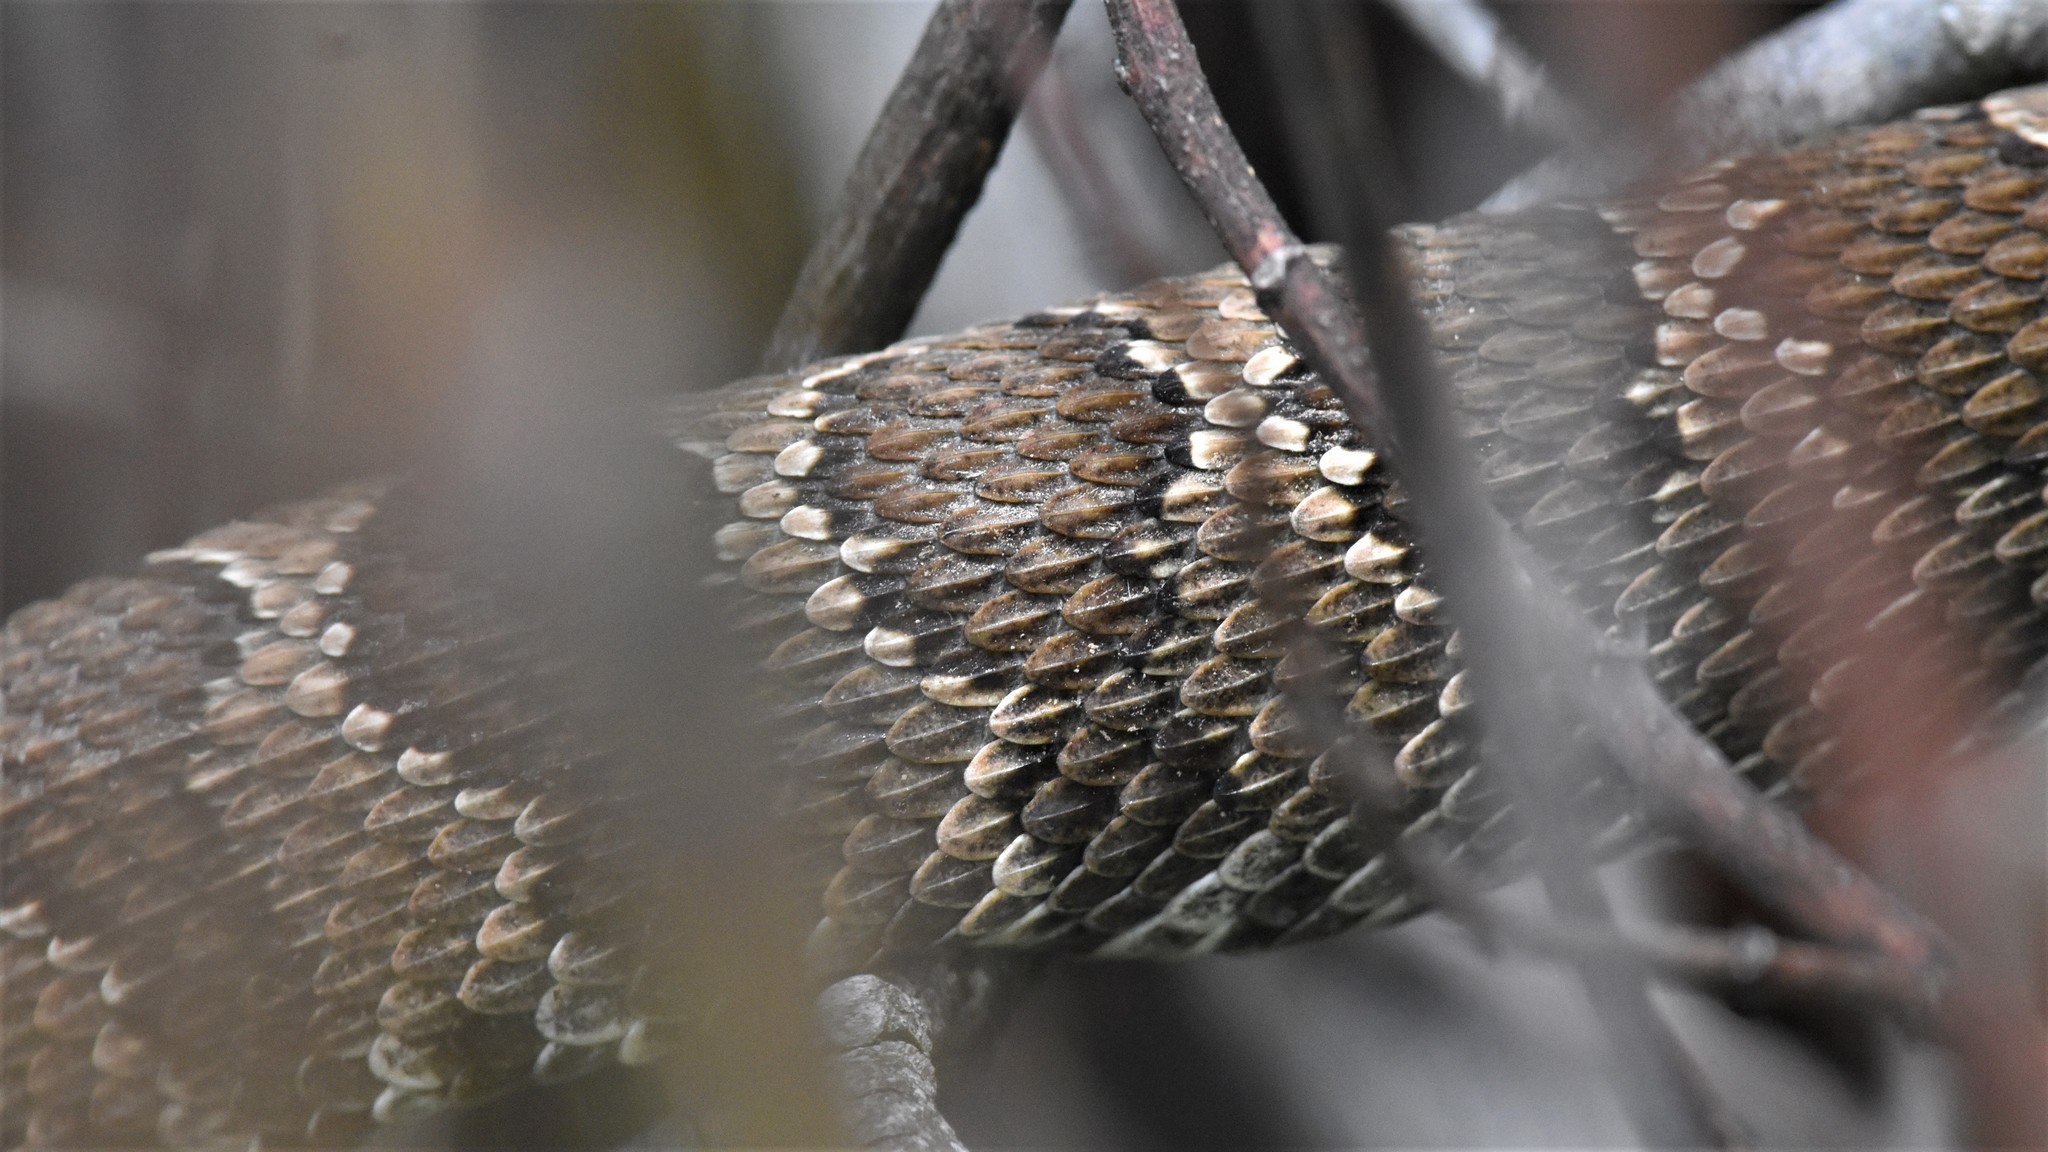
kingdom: Animalia
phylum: Chordata
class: Squamata
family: Viperidae
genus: Crotalus
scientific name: Crotalus oreganus
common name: Abyssus
